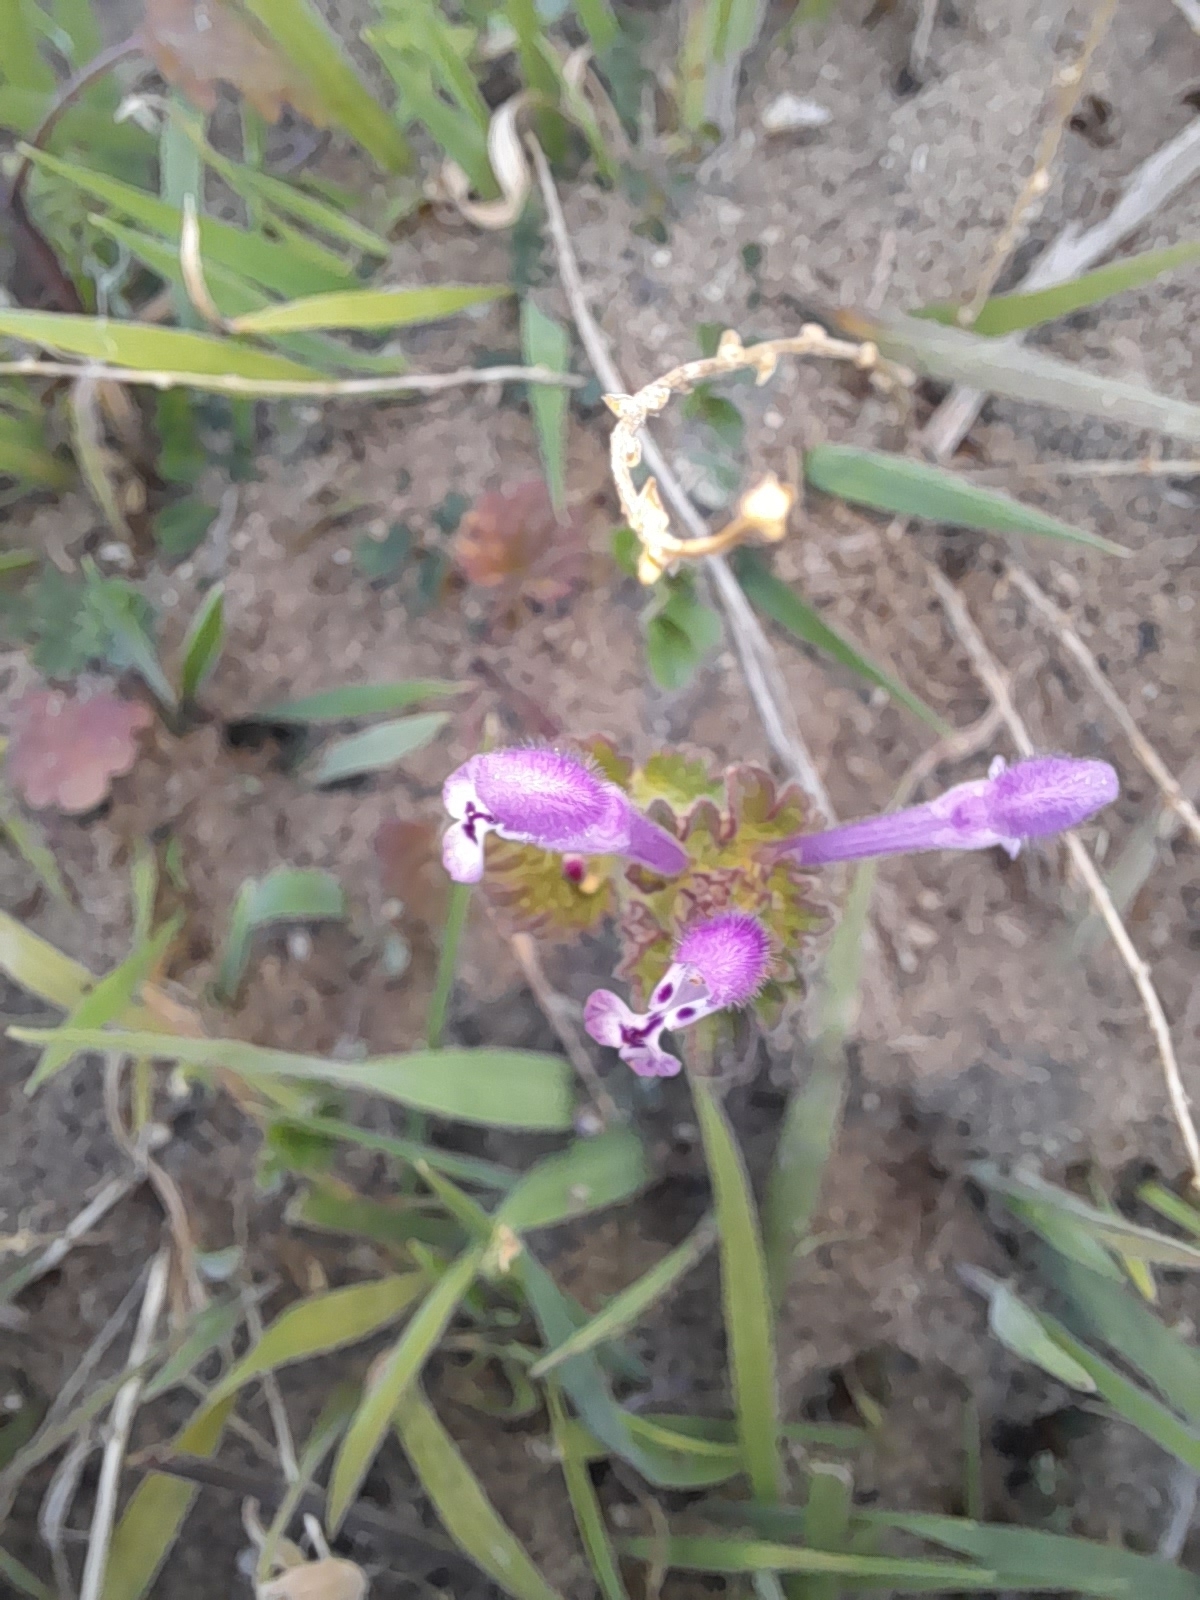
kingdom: Plantae
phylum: Tracheophyta
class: Magnoliopsida
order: Lamiales
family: Lamiaceae
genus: Lamium
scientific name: Lamium amplexicaule
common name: Henbit dead-nettle
